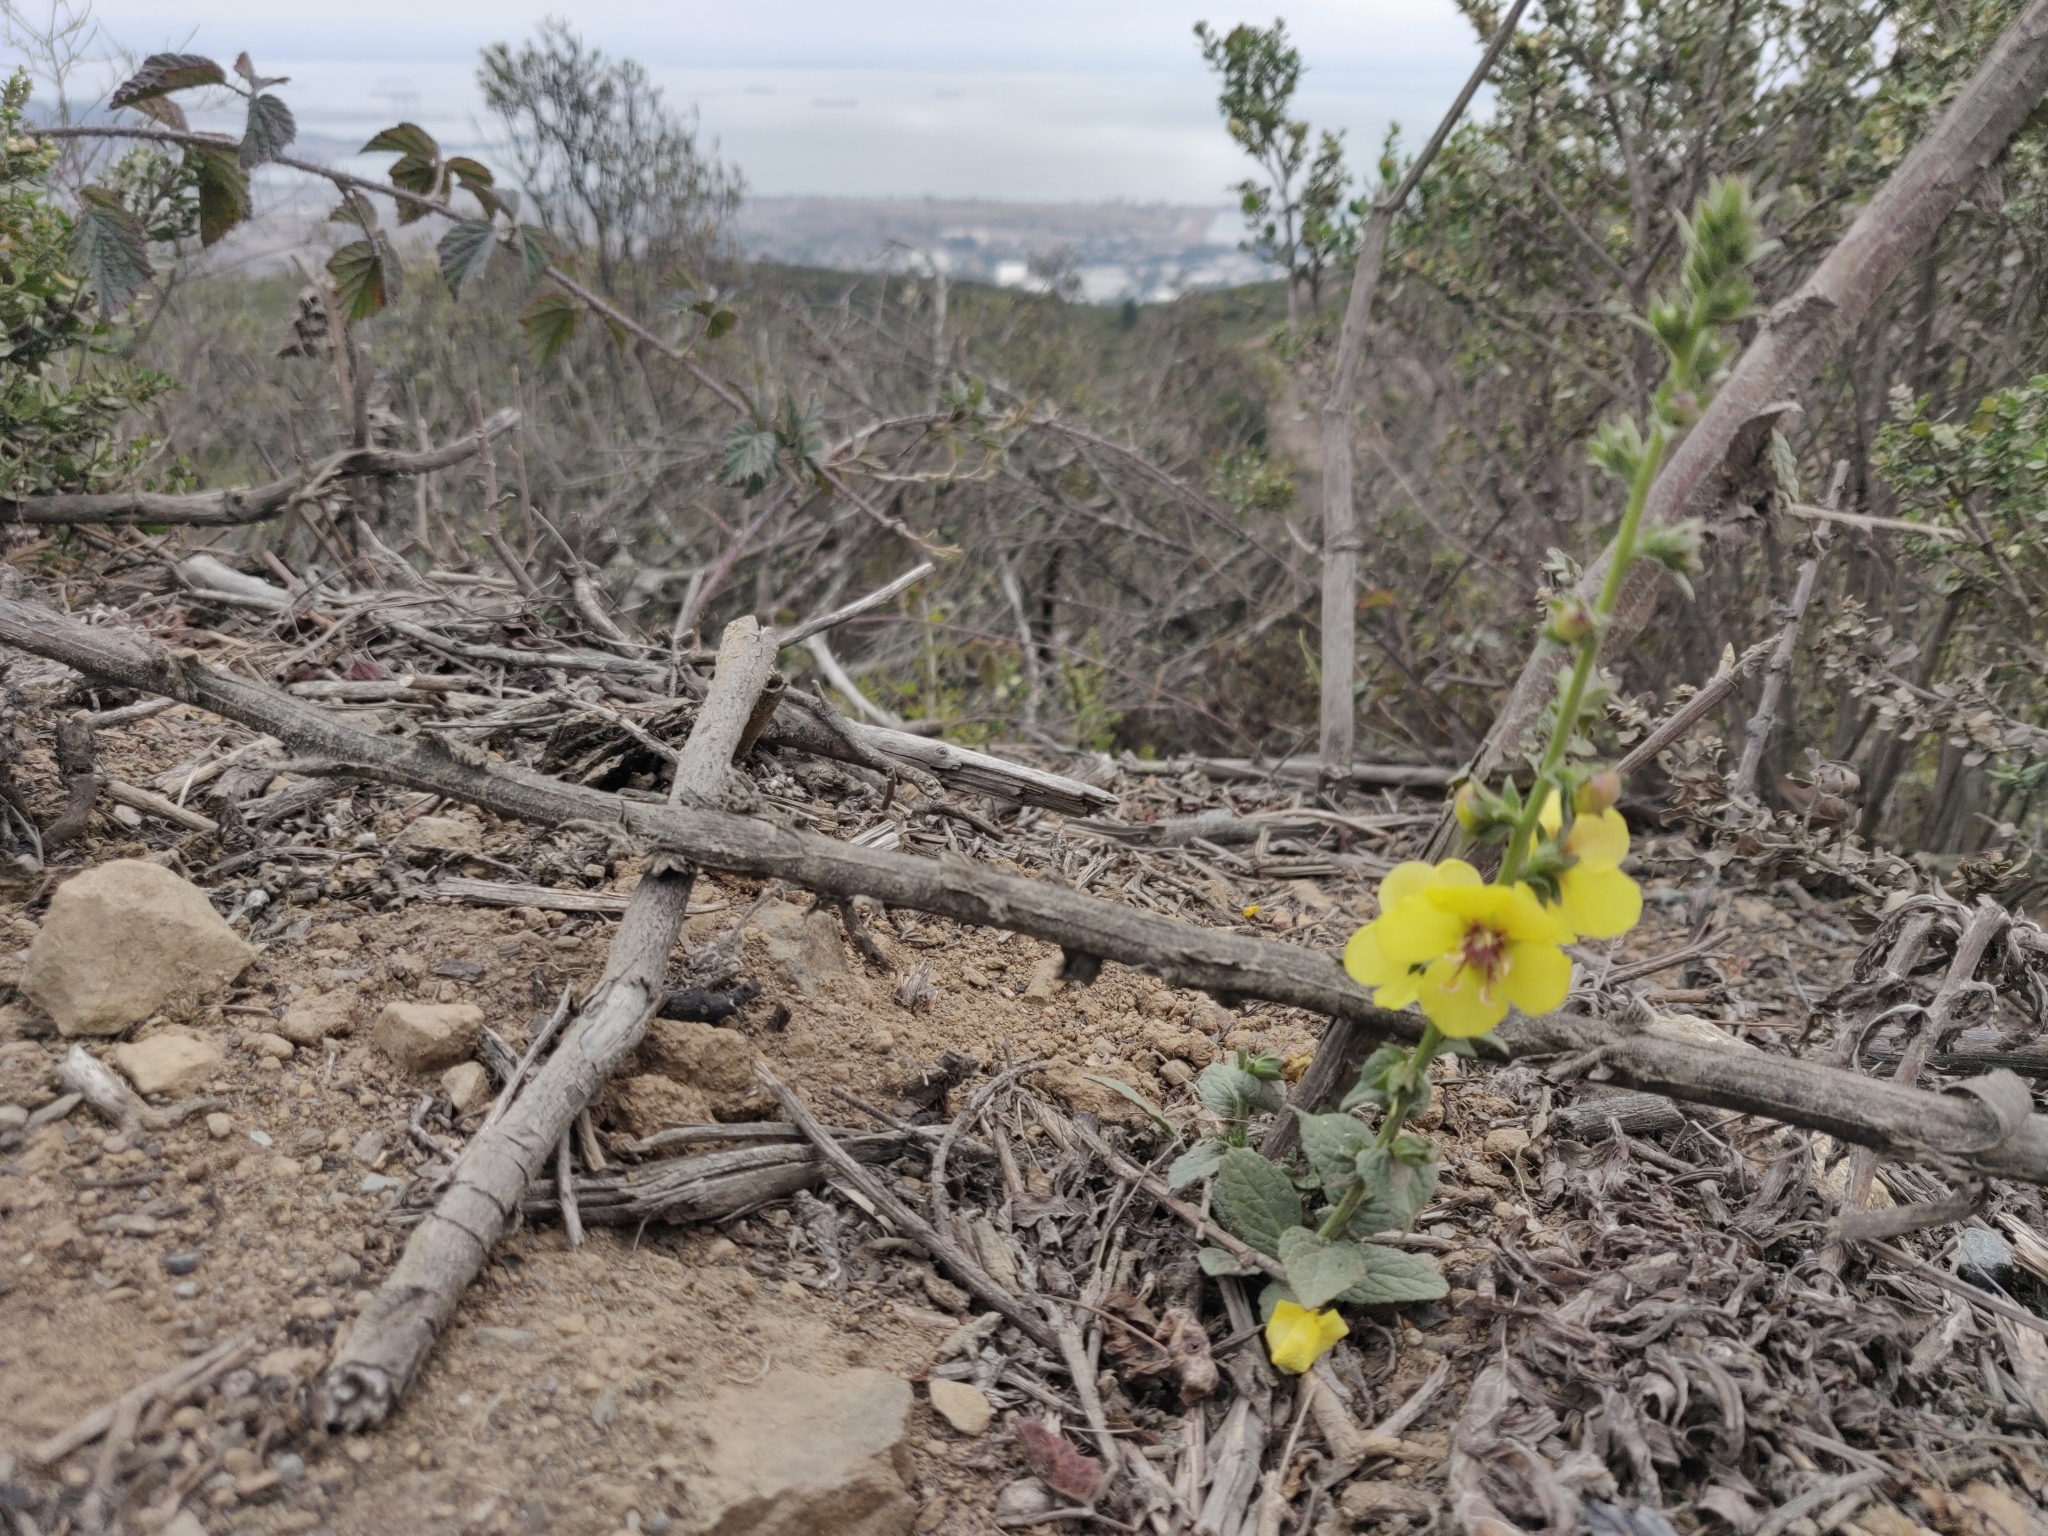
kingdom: Plantae
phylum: Tracheophyta
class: Magnoliopsida
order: Lamiales
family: Scrophulariaceae
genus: Verbascum
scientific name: Verbascum virgatum
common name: Twiggy mullein
